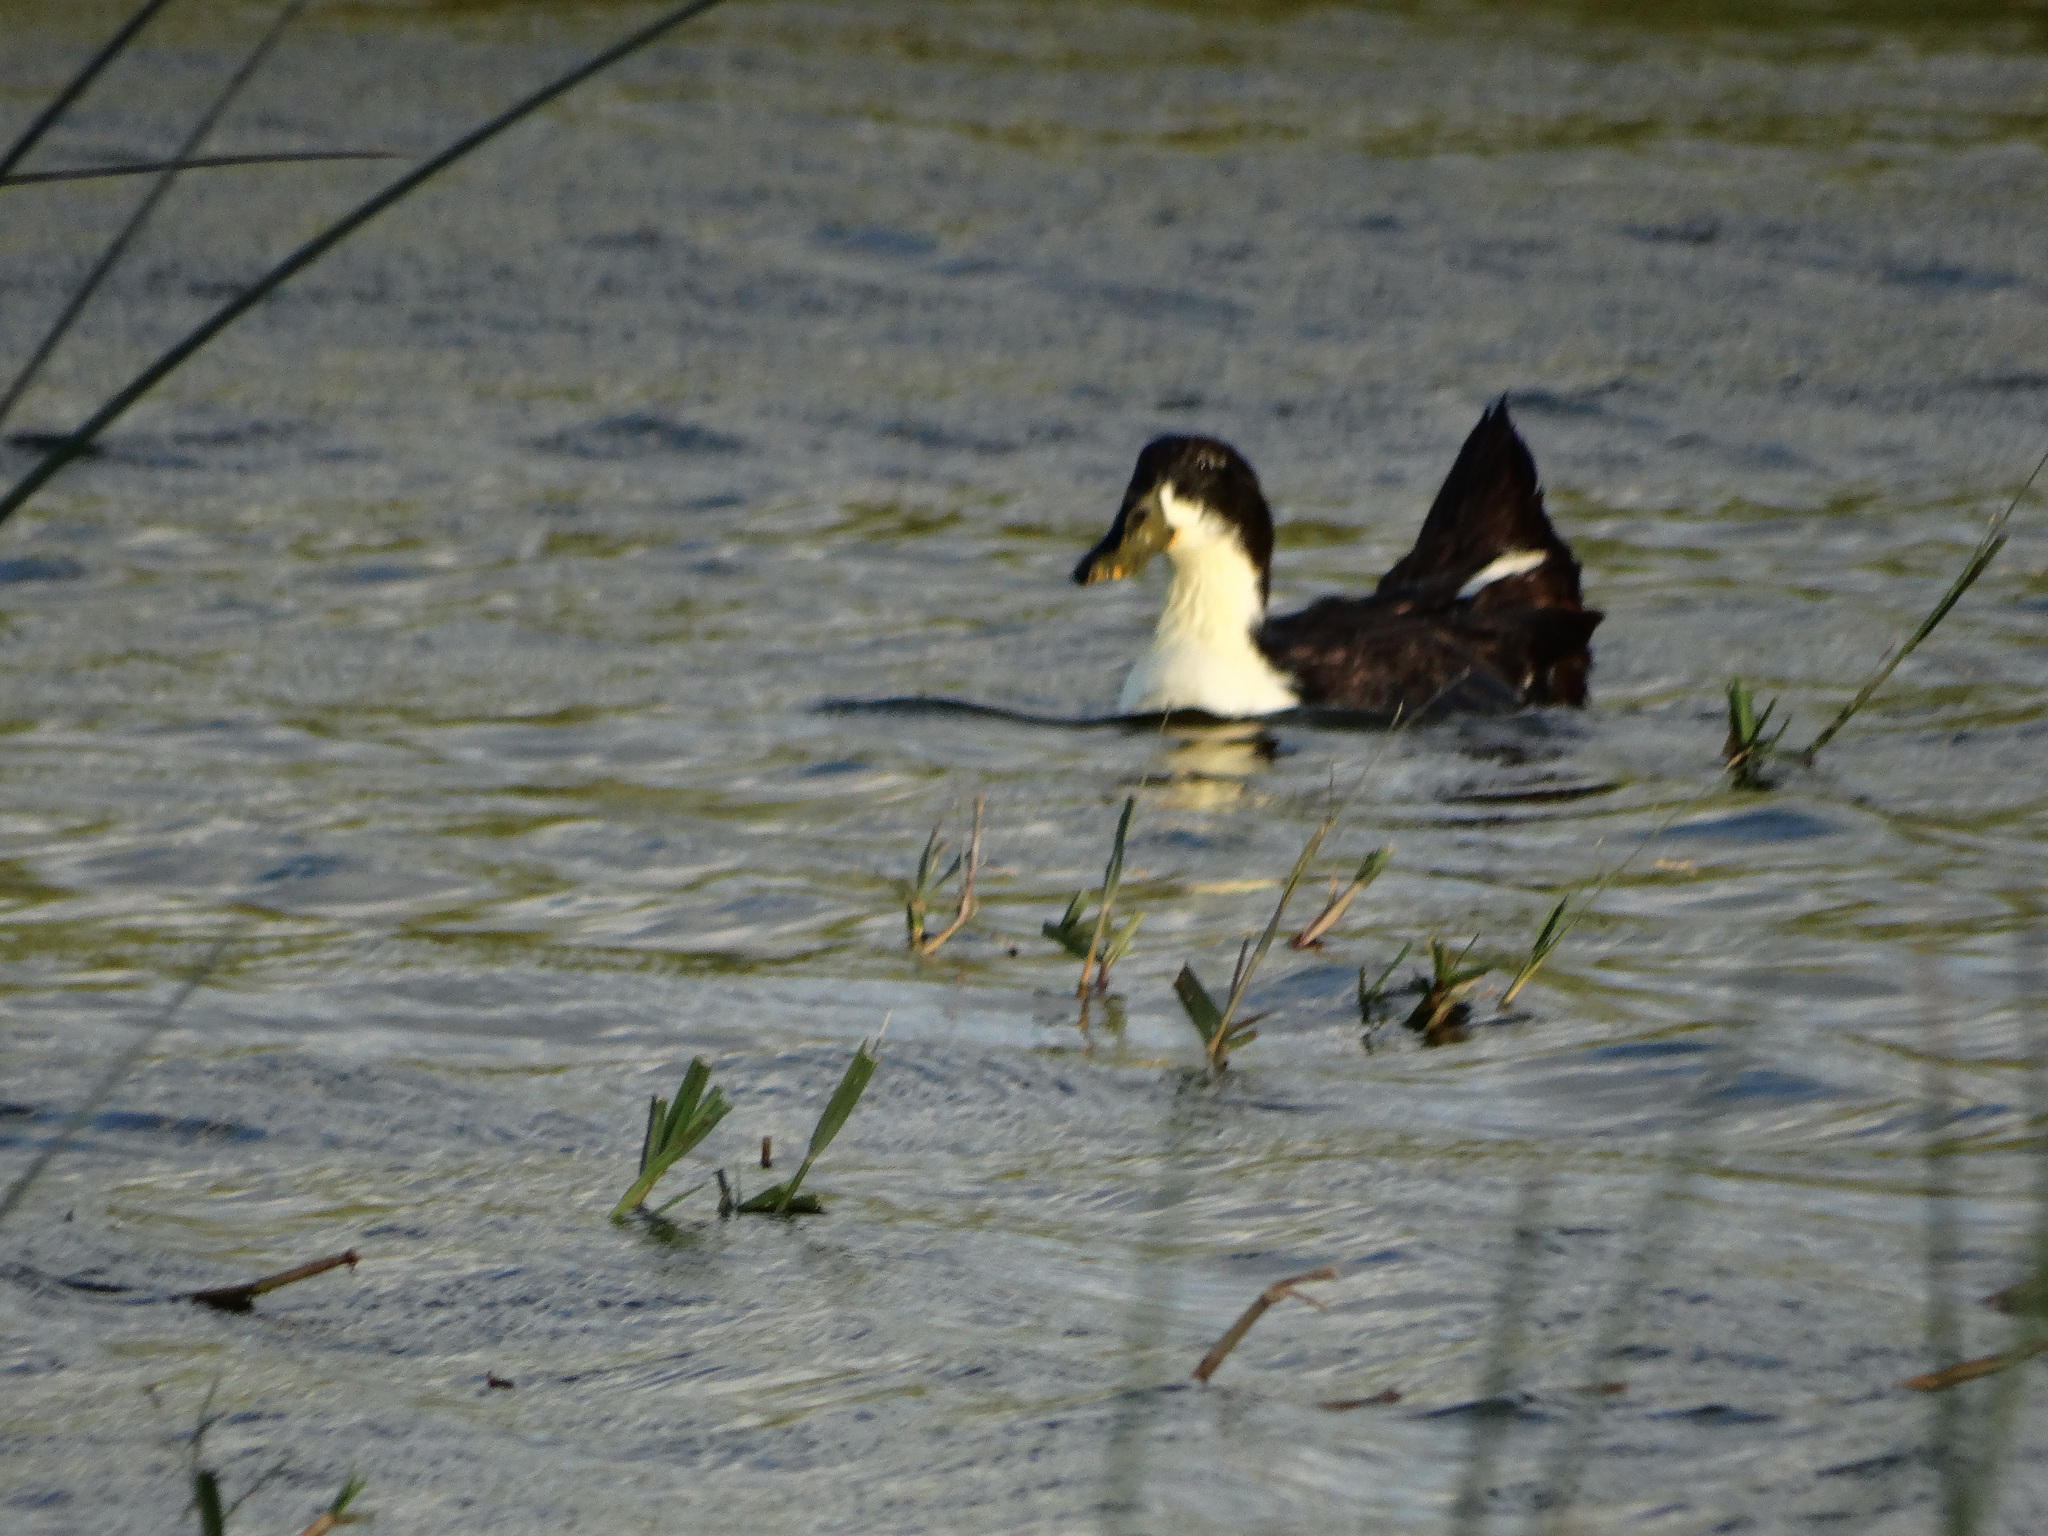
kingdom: Animalia
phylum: Chordata
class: Aves
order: Anseriformes
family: Anatidae
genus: Anas
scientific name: Anas platyrhynchos
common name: Mallard
